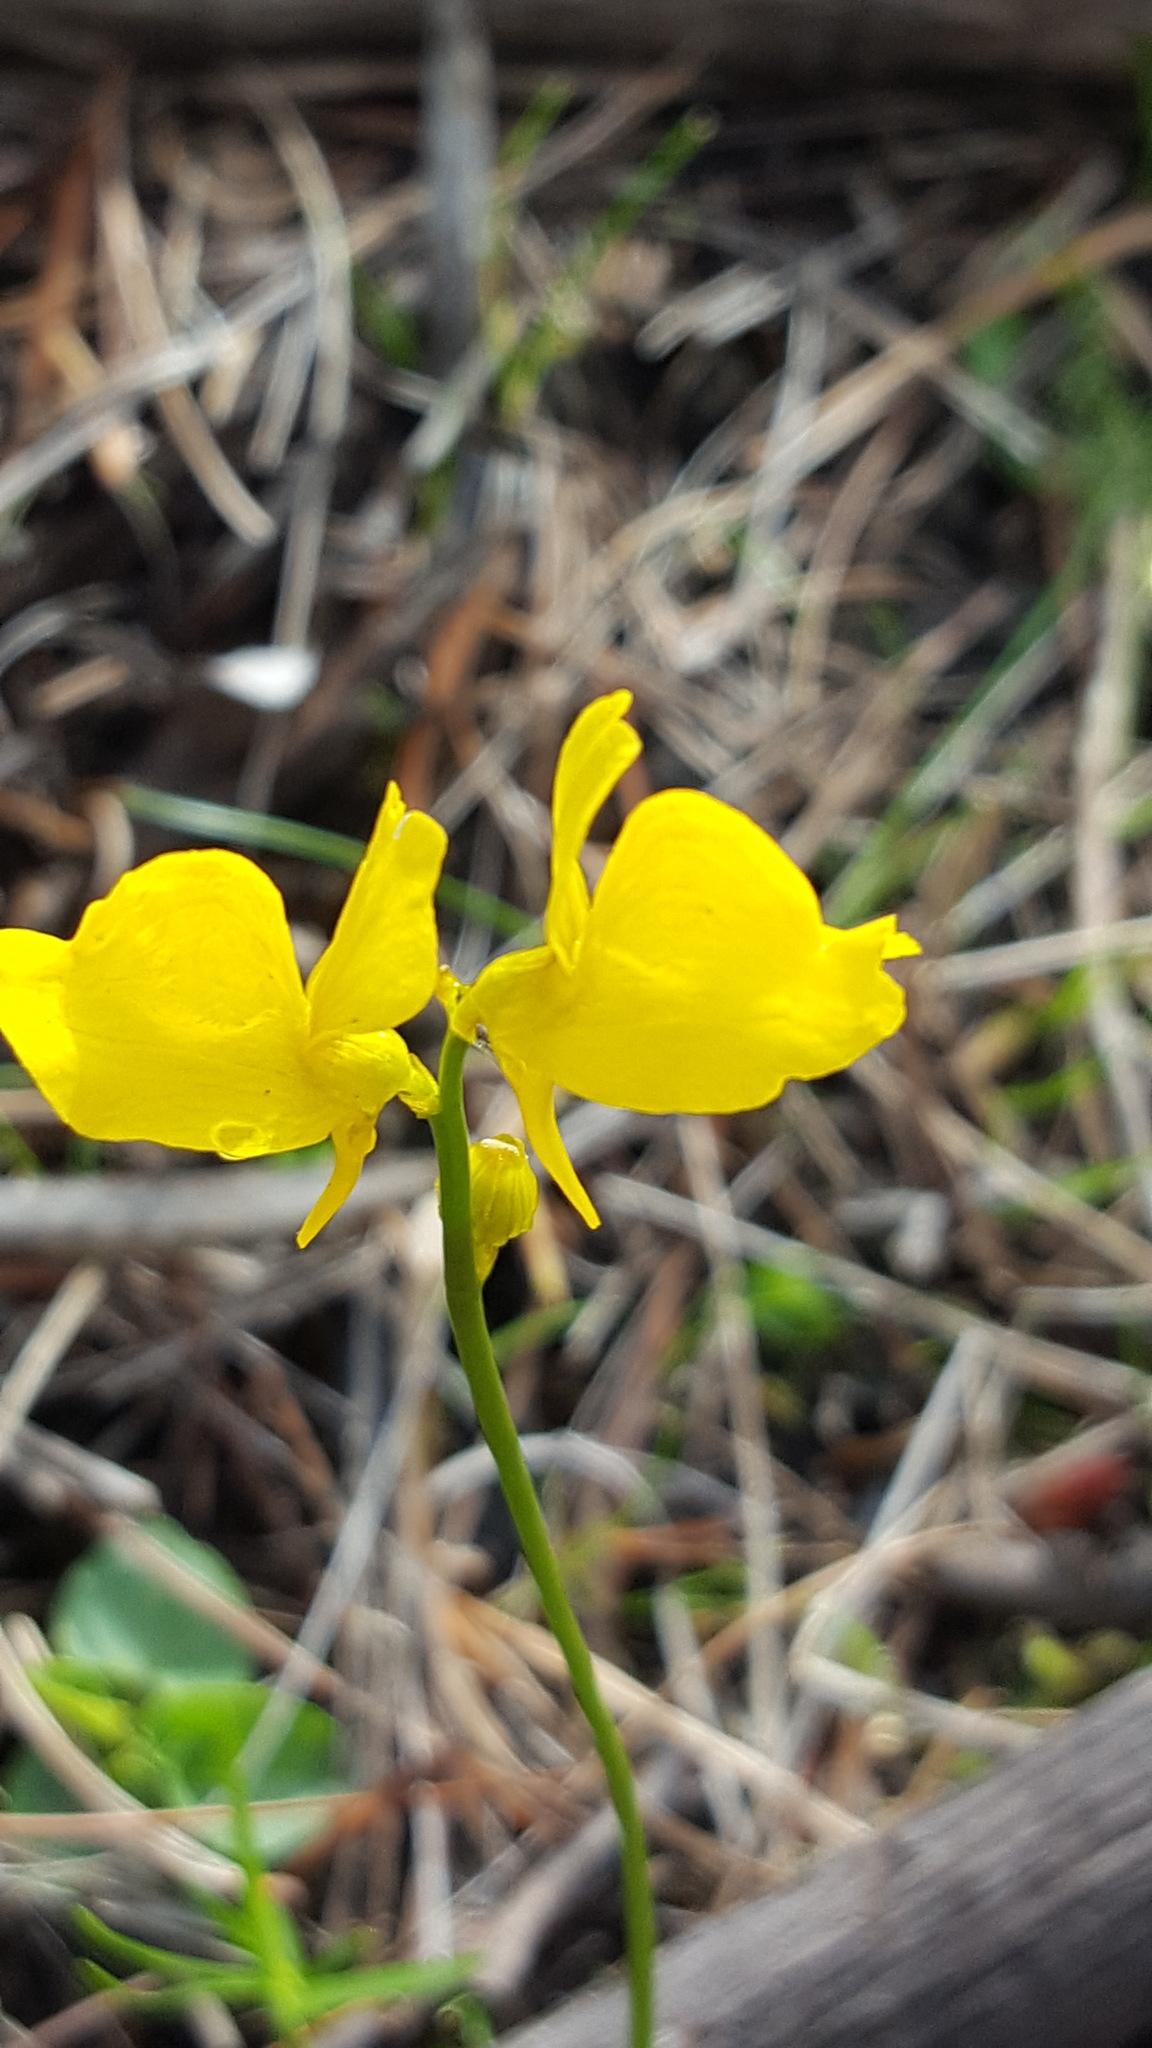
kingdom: Plantae
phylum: Tracheophyta
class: Magnoliopsida
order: Lamiales
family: Lentibulariaceae
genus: Utricularia
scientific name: Utricularia cornuta
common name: Horned bladderwort
